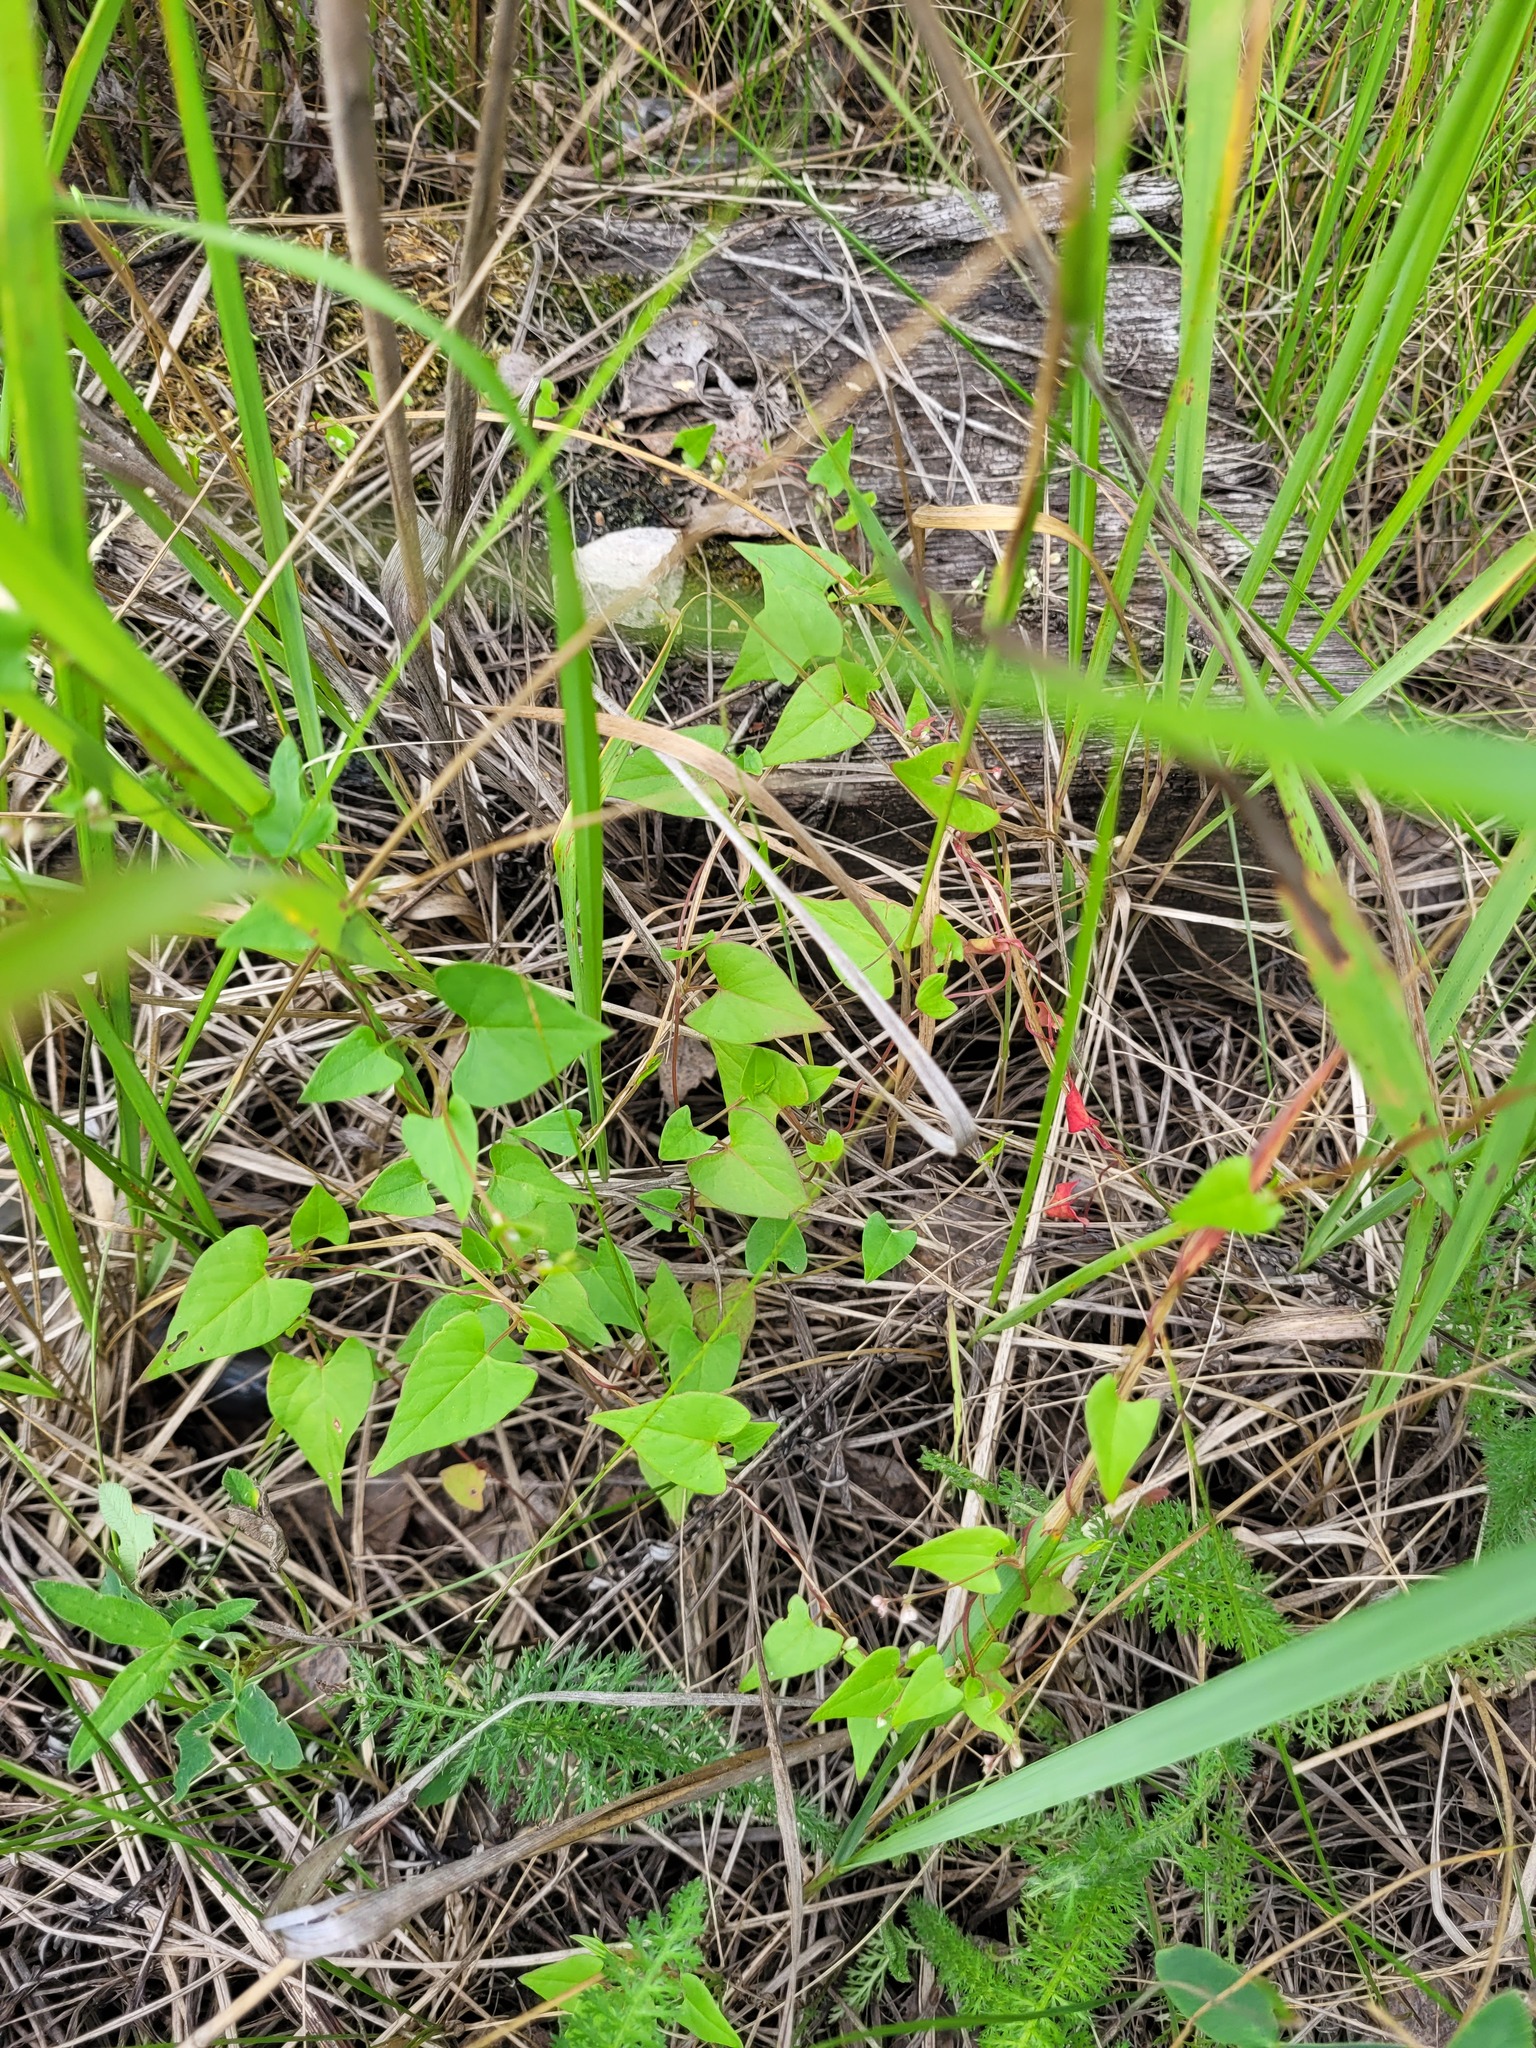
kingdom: Plantae
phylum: Tracheophyta
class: Magnoliopsida
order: Caryophyllales
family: Polygonaceae
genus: Fallopia
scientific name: Fallopia convolvulus
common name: Black bindweed
